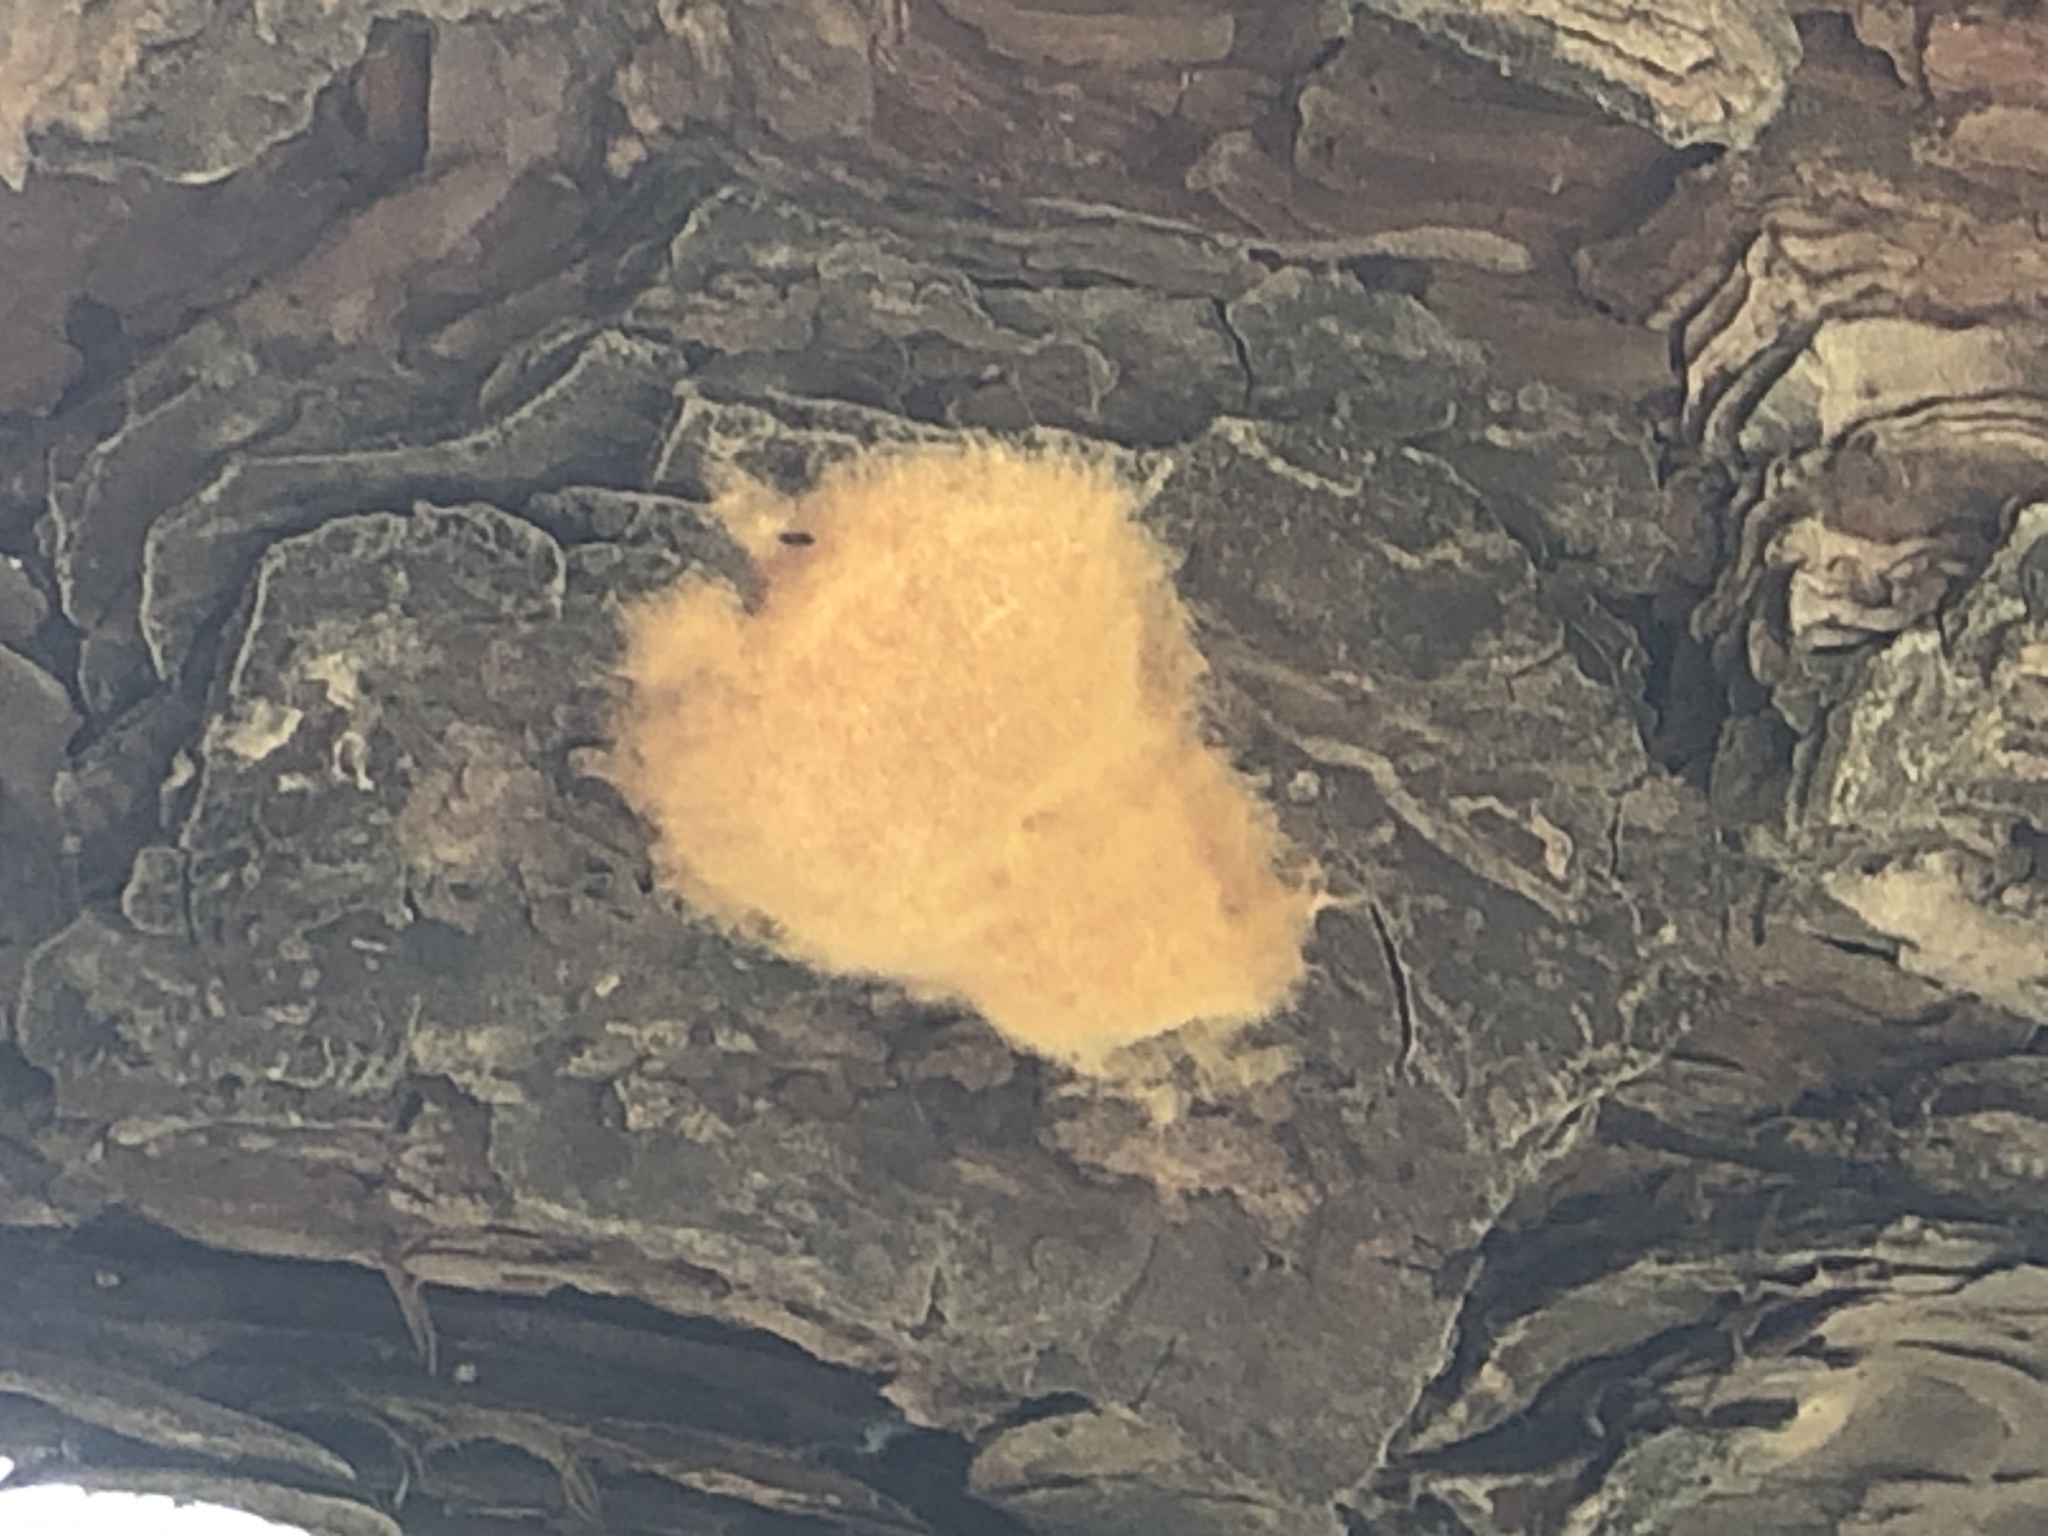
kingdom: Animalia
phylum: Arthropoda
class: Insecta
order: Lepidoptera
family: Erebidae
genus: Lymantria
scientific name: Lymantria dispar
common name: Gypsy moth
